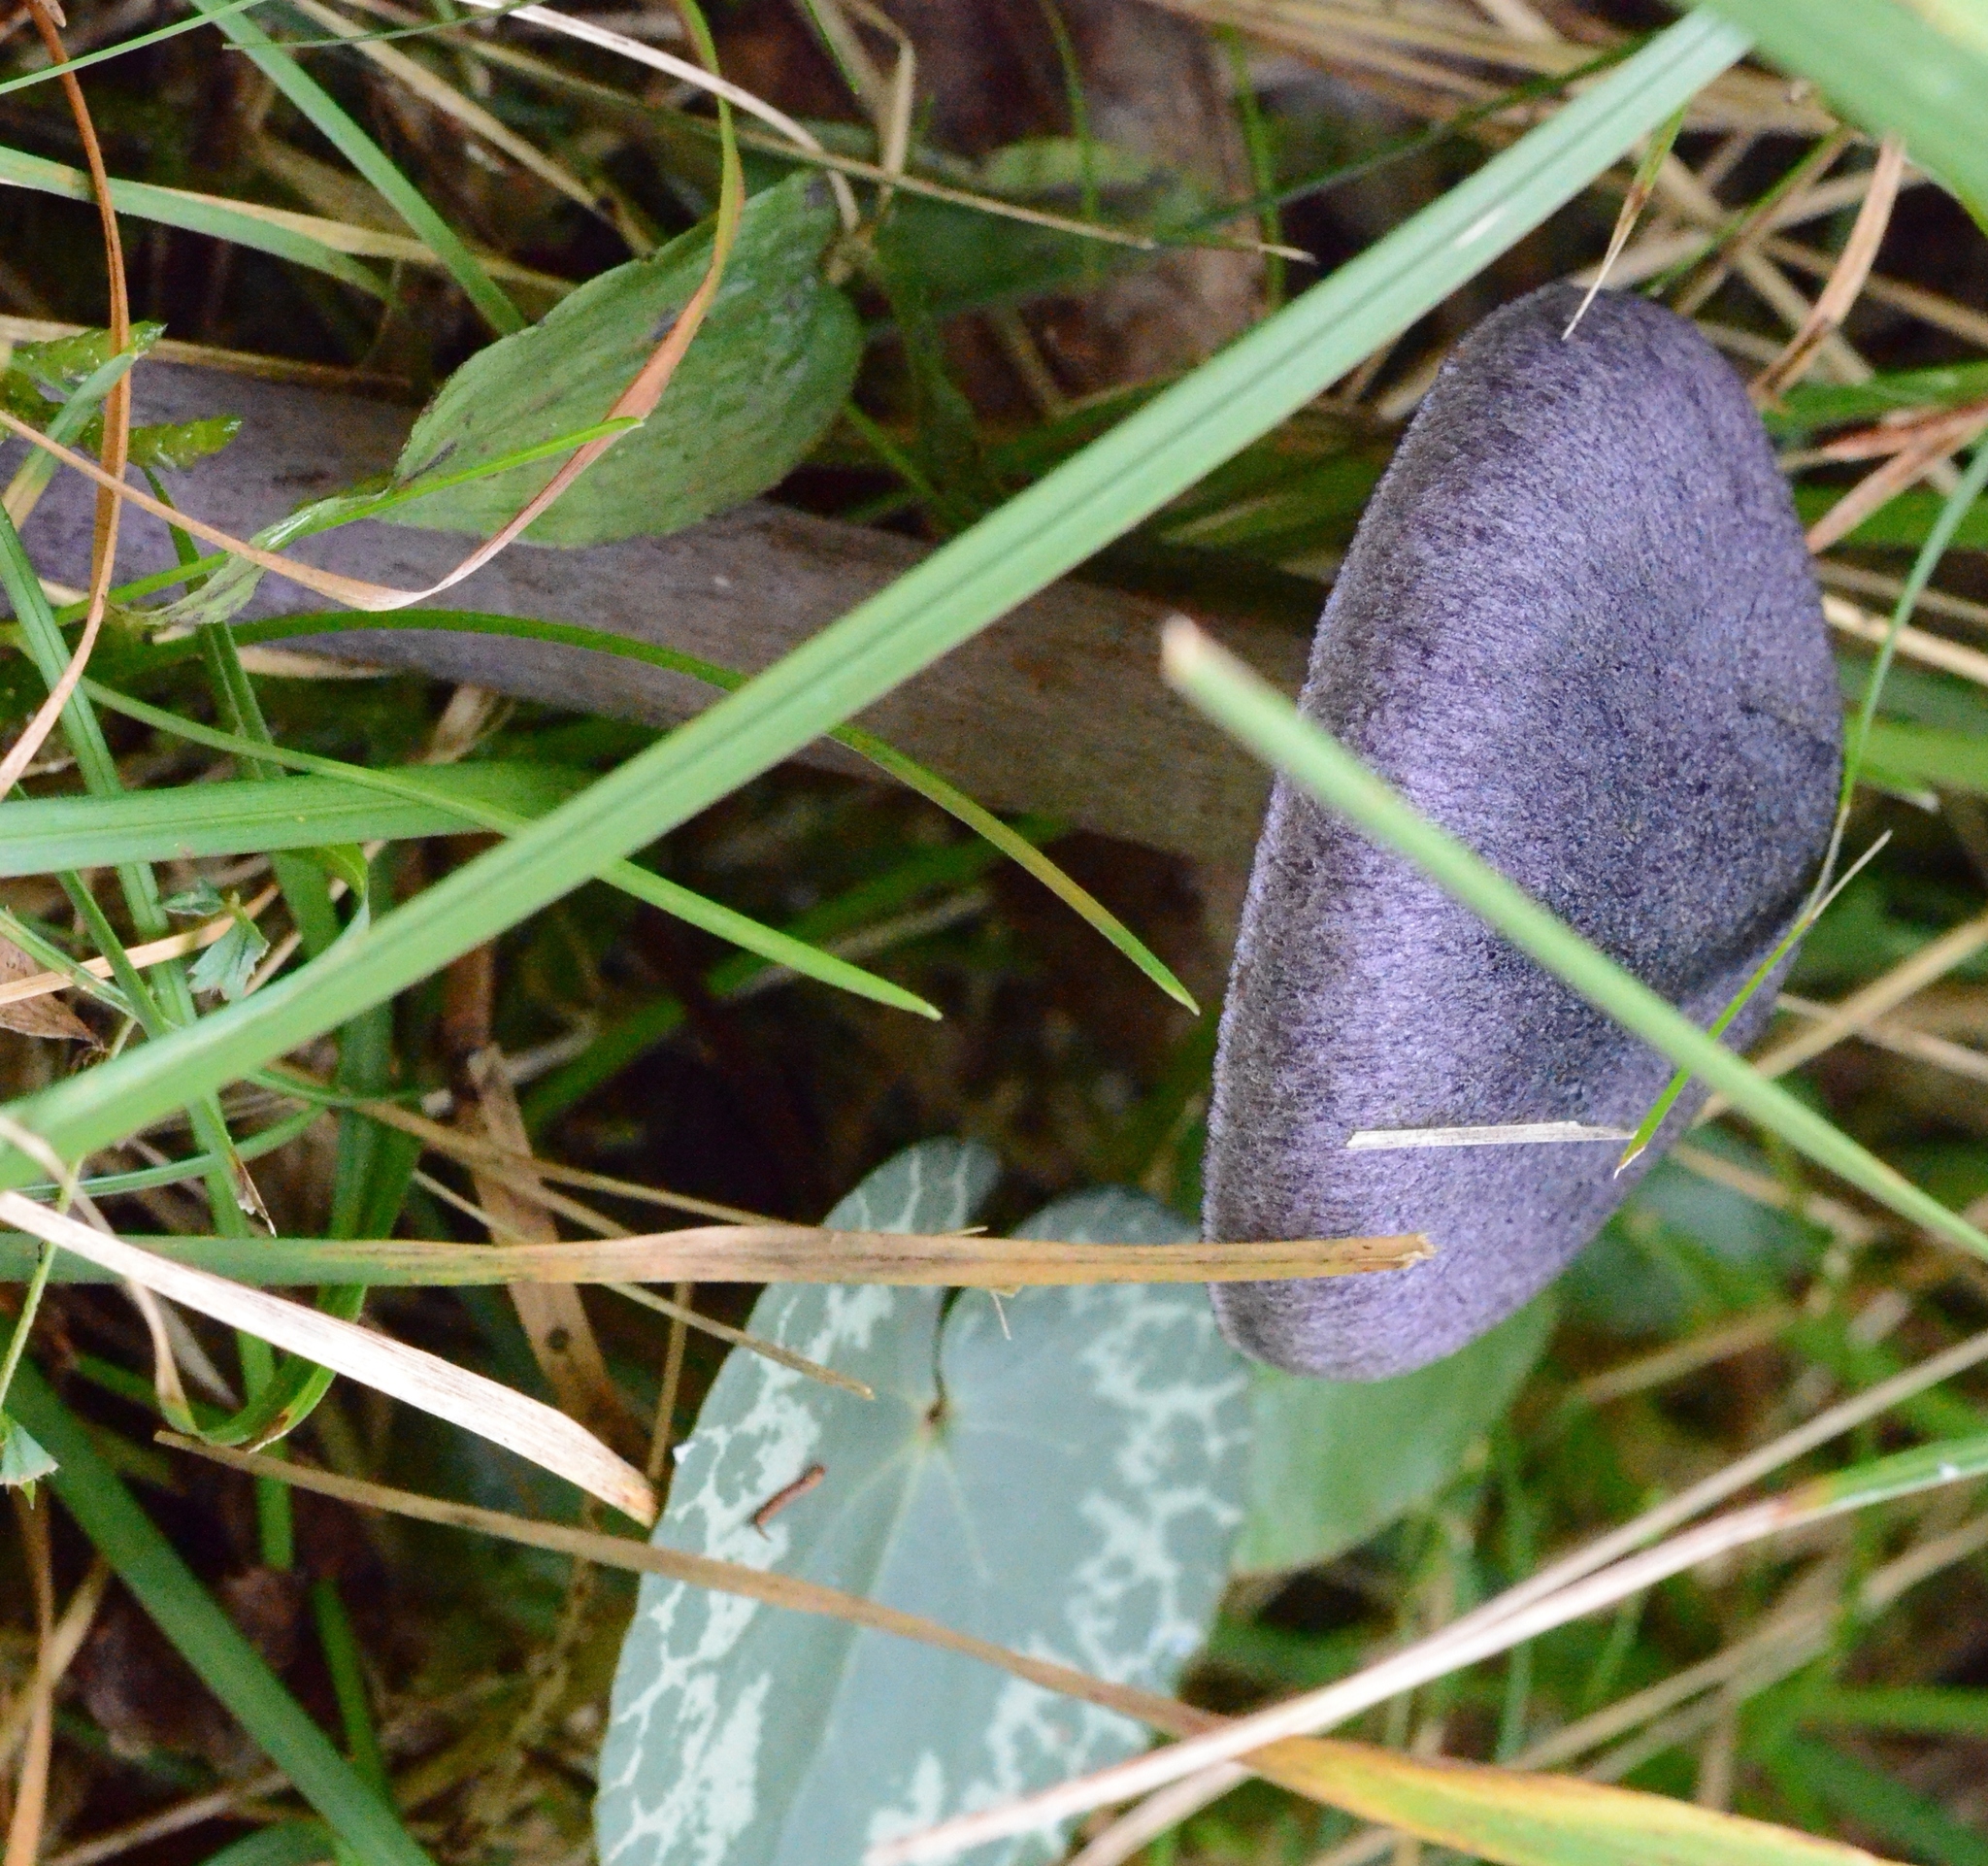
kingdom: Fungi
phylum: Basidiomycota
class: Agaricomycetes
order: Agaricales
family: Cortinariaceae
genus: Cortinarius
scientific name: Cortinarius violaceus
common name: Violet webcap
